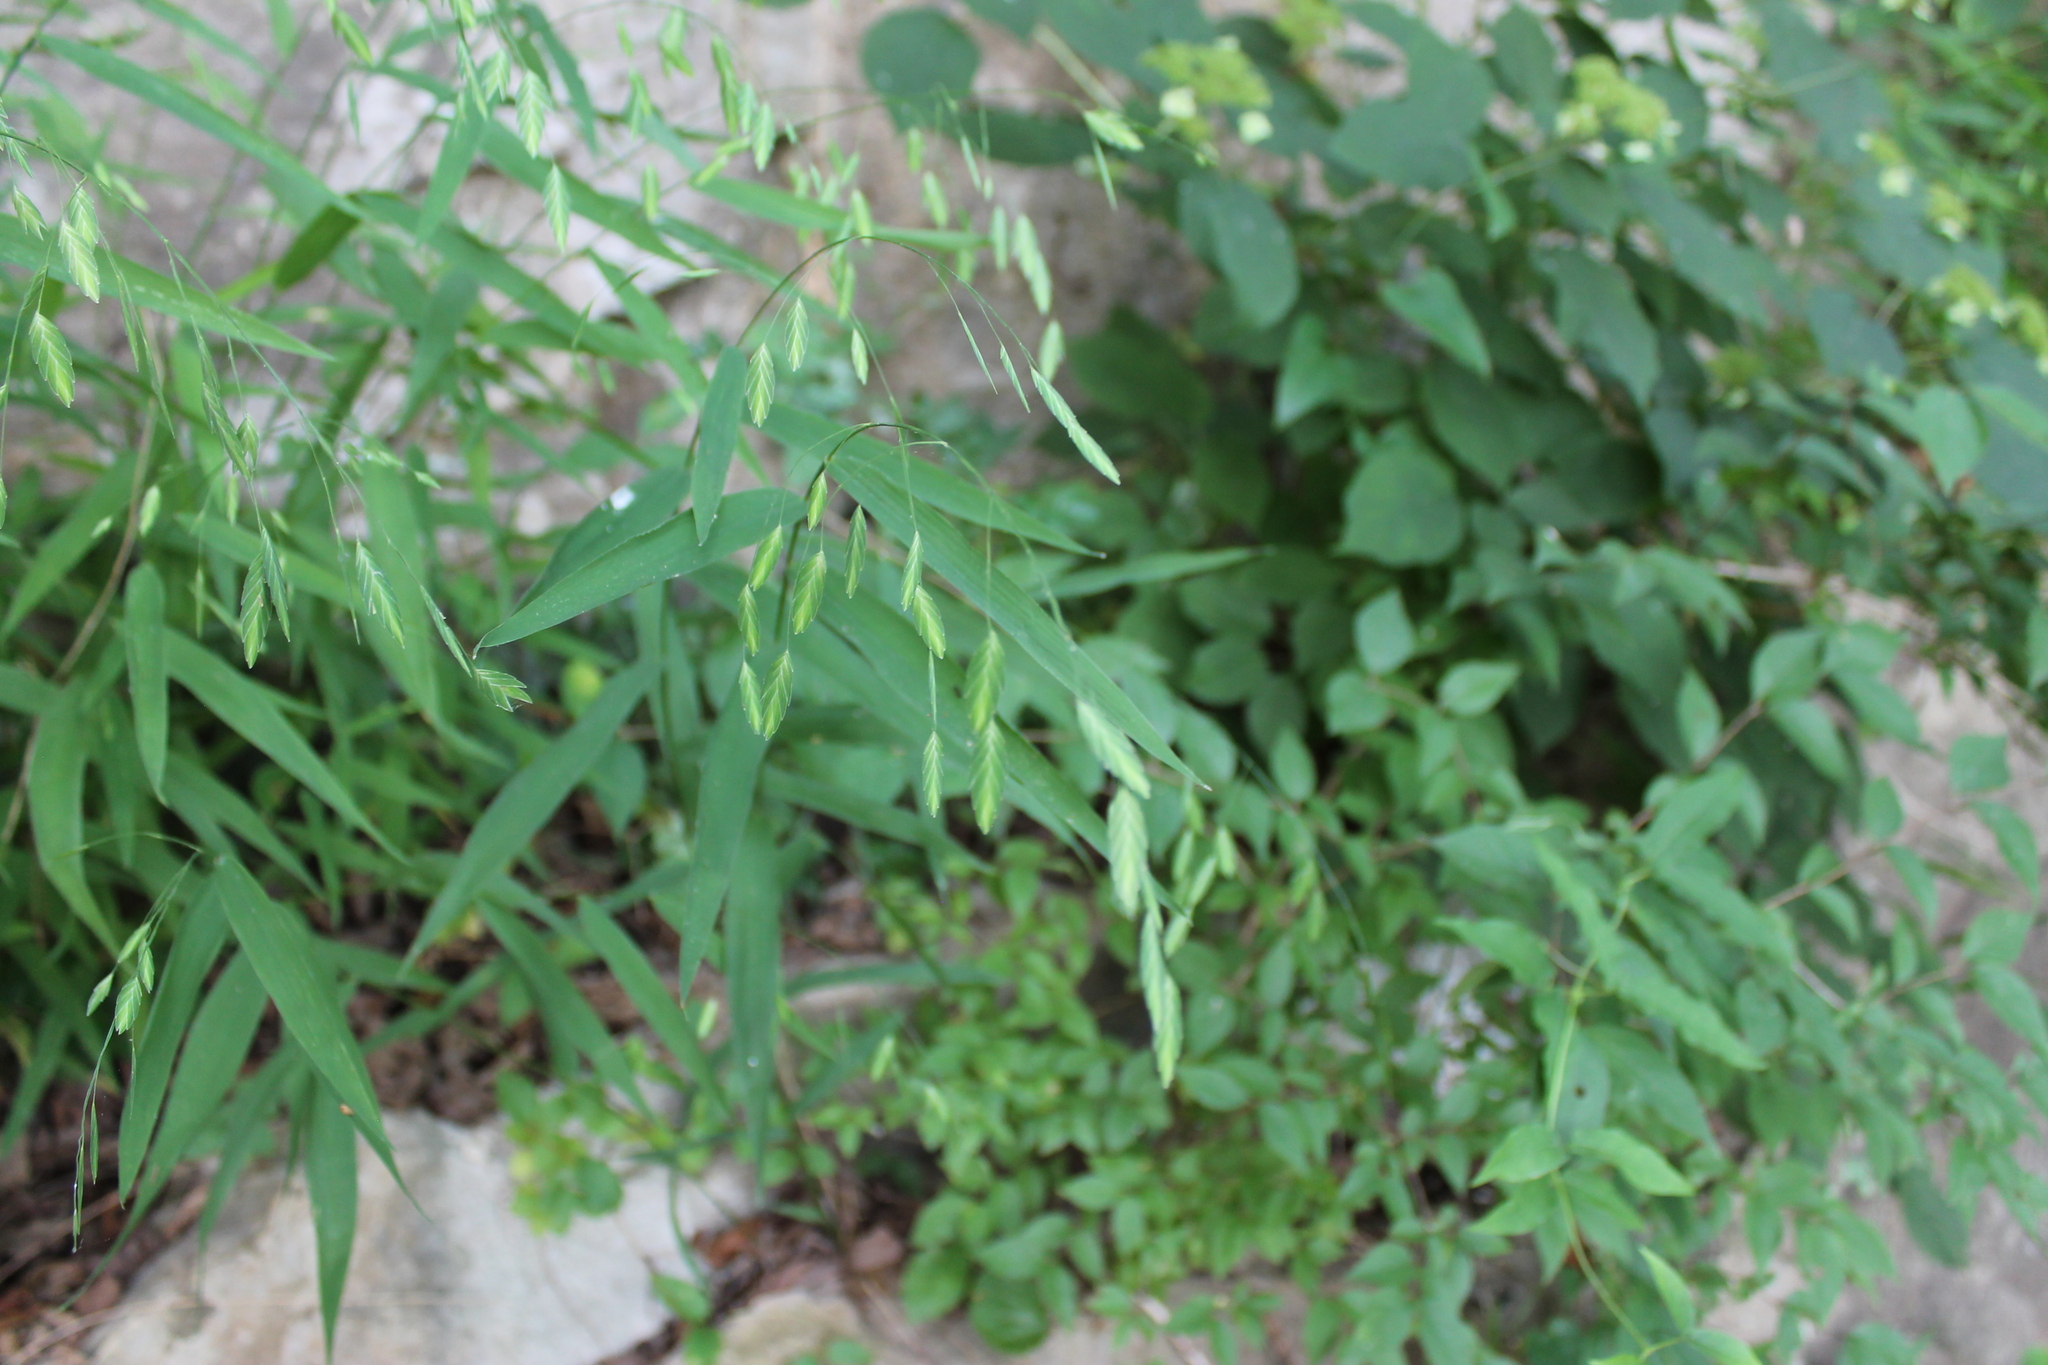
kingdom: Plantae
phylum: Tracheophyta
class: Liliopsida
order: Poales
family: Poaceae
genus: Chasmanthium
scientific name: Chasmanthium latifolium
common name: Broad-leaved chasmanthium
